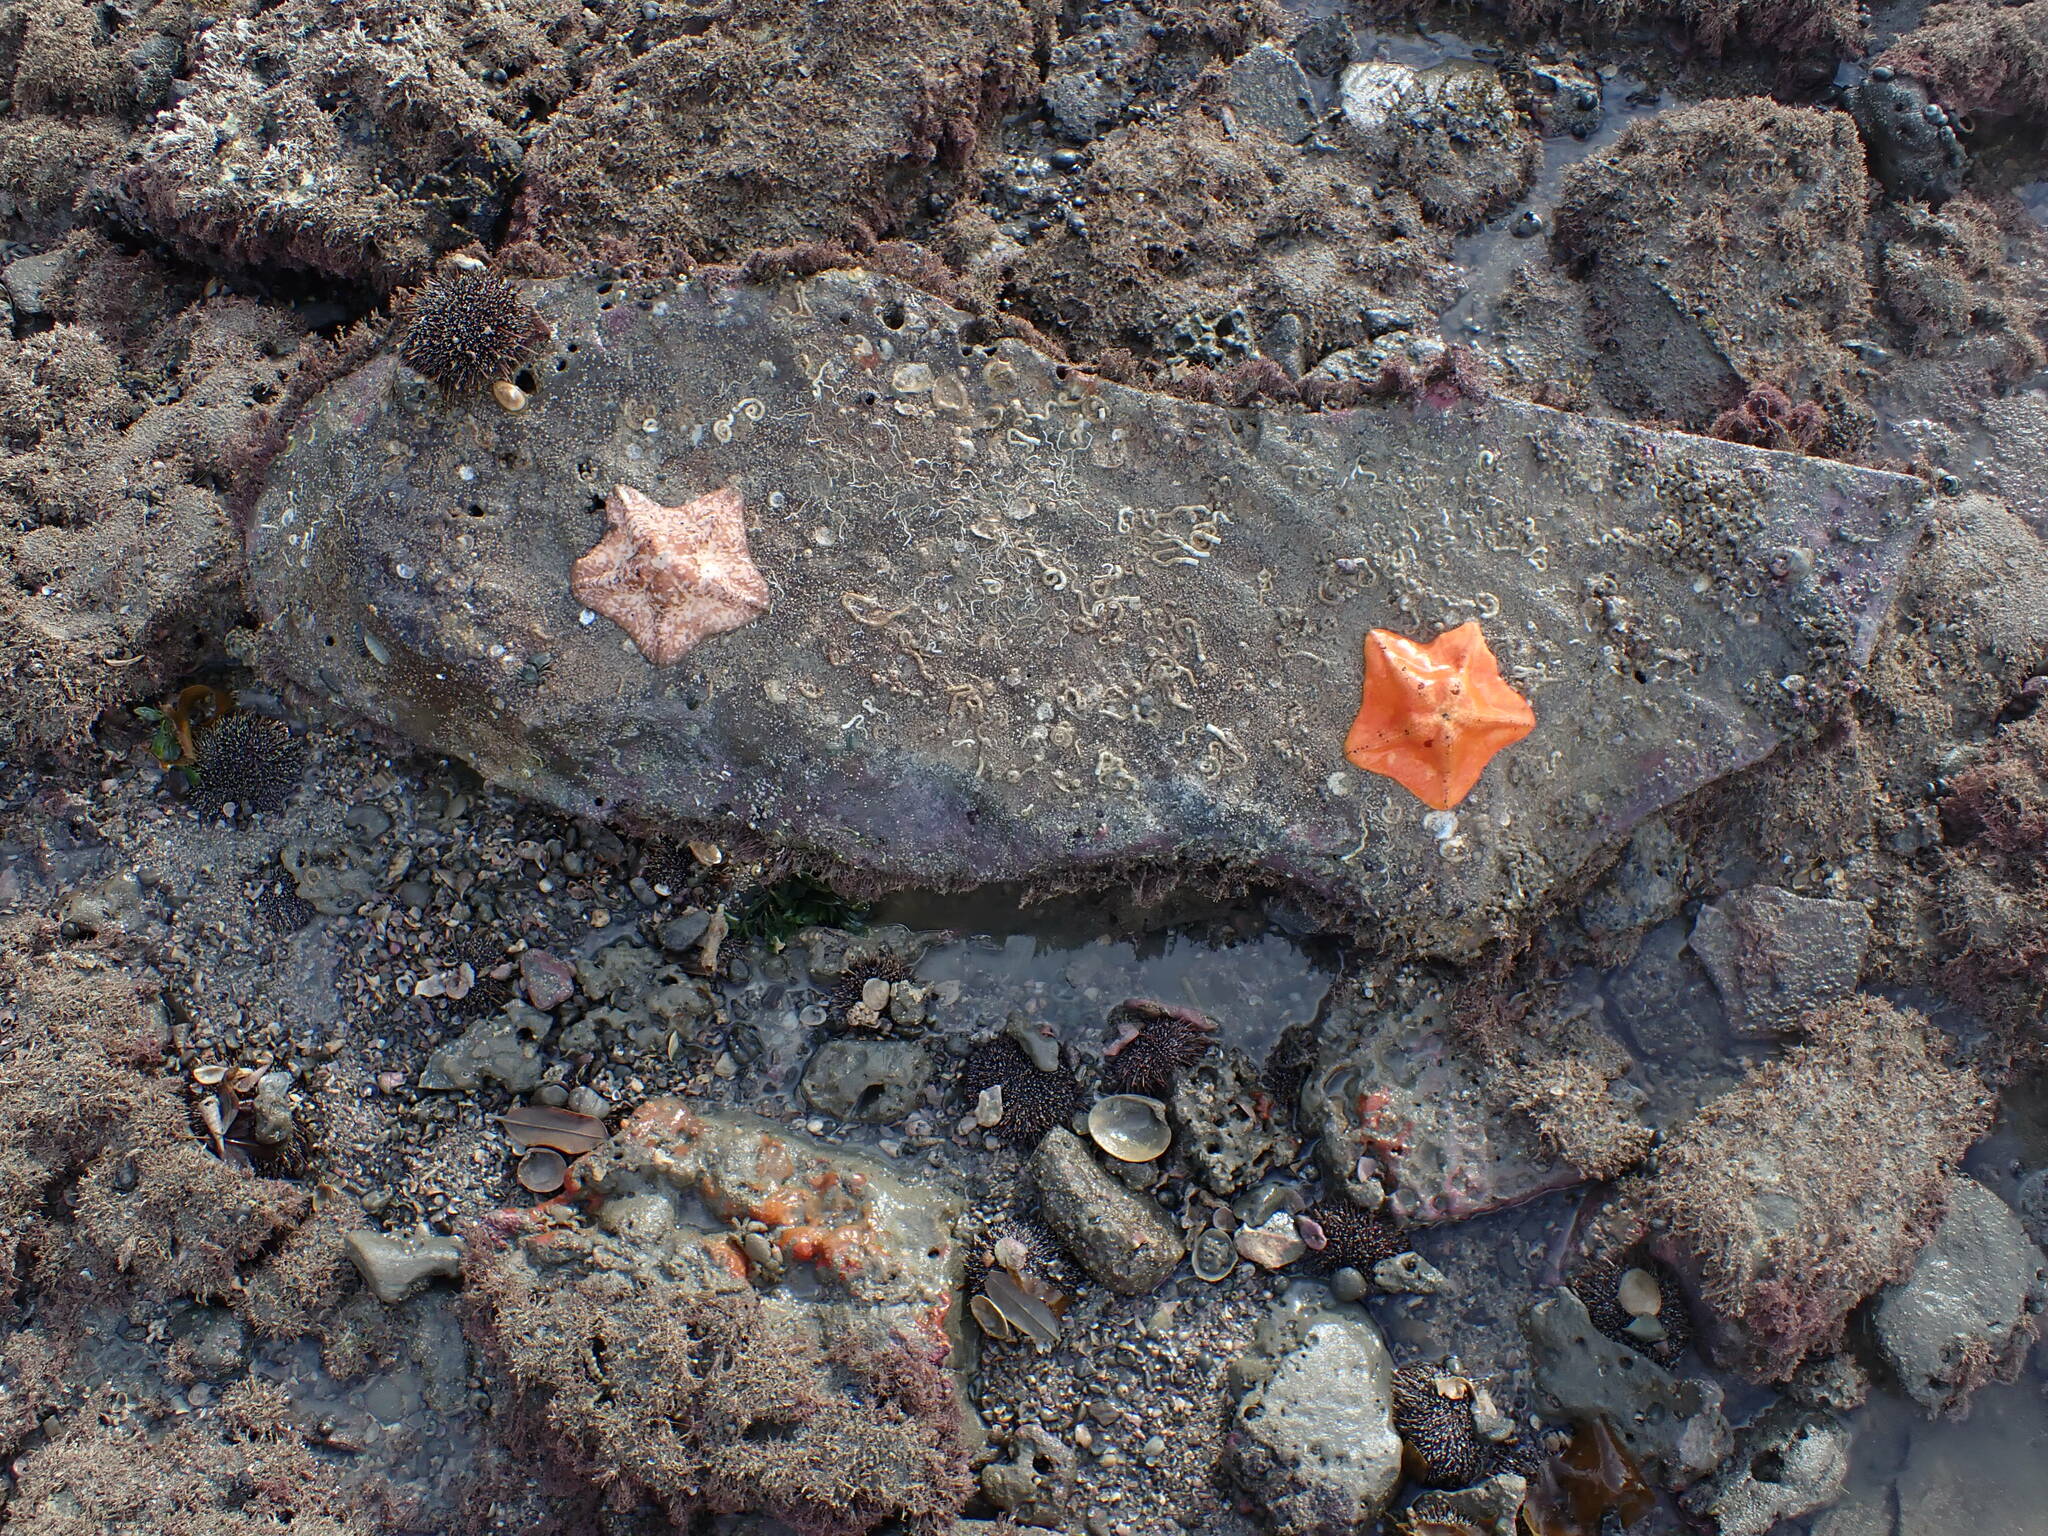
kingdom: Animalia
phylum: Echinodermata
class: Asteroidea
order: Valvatida
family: Asterinidae
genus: Stegnaster
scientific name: Stegnaster inflatus
